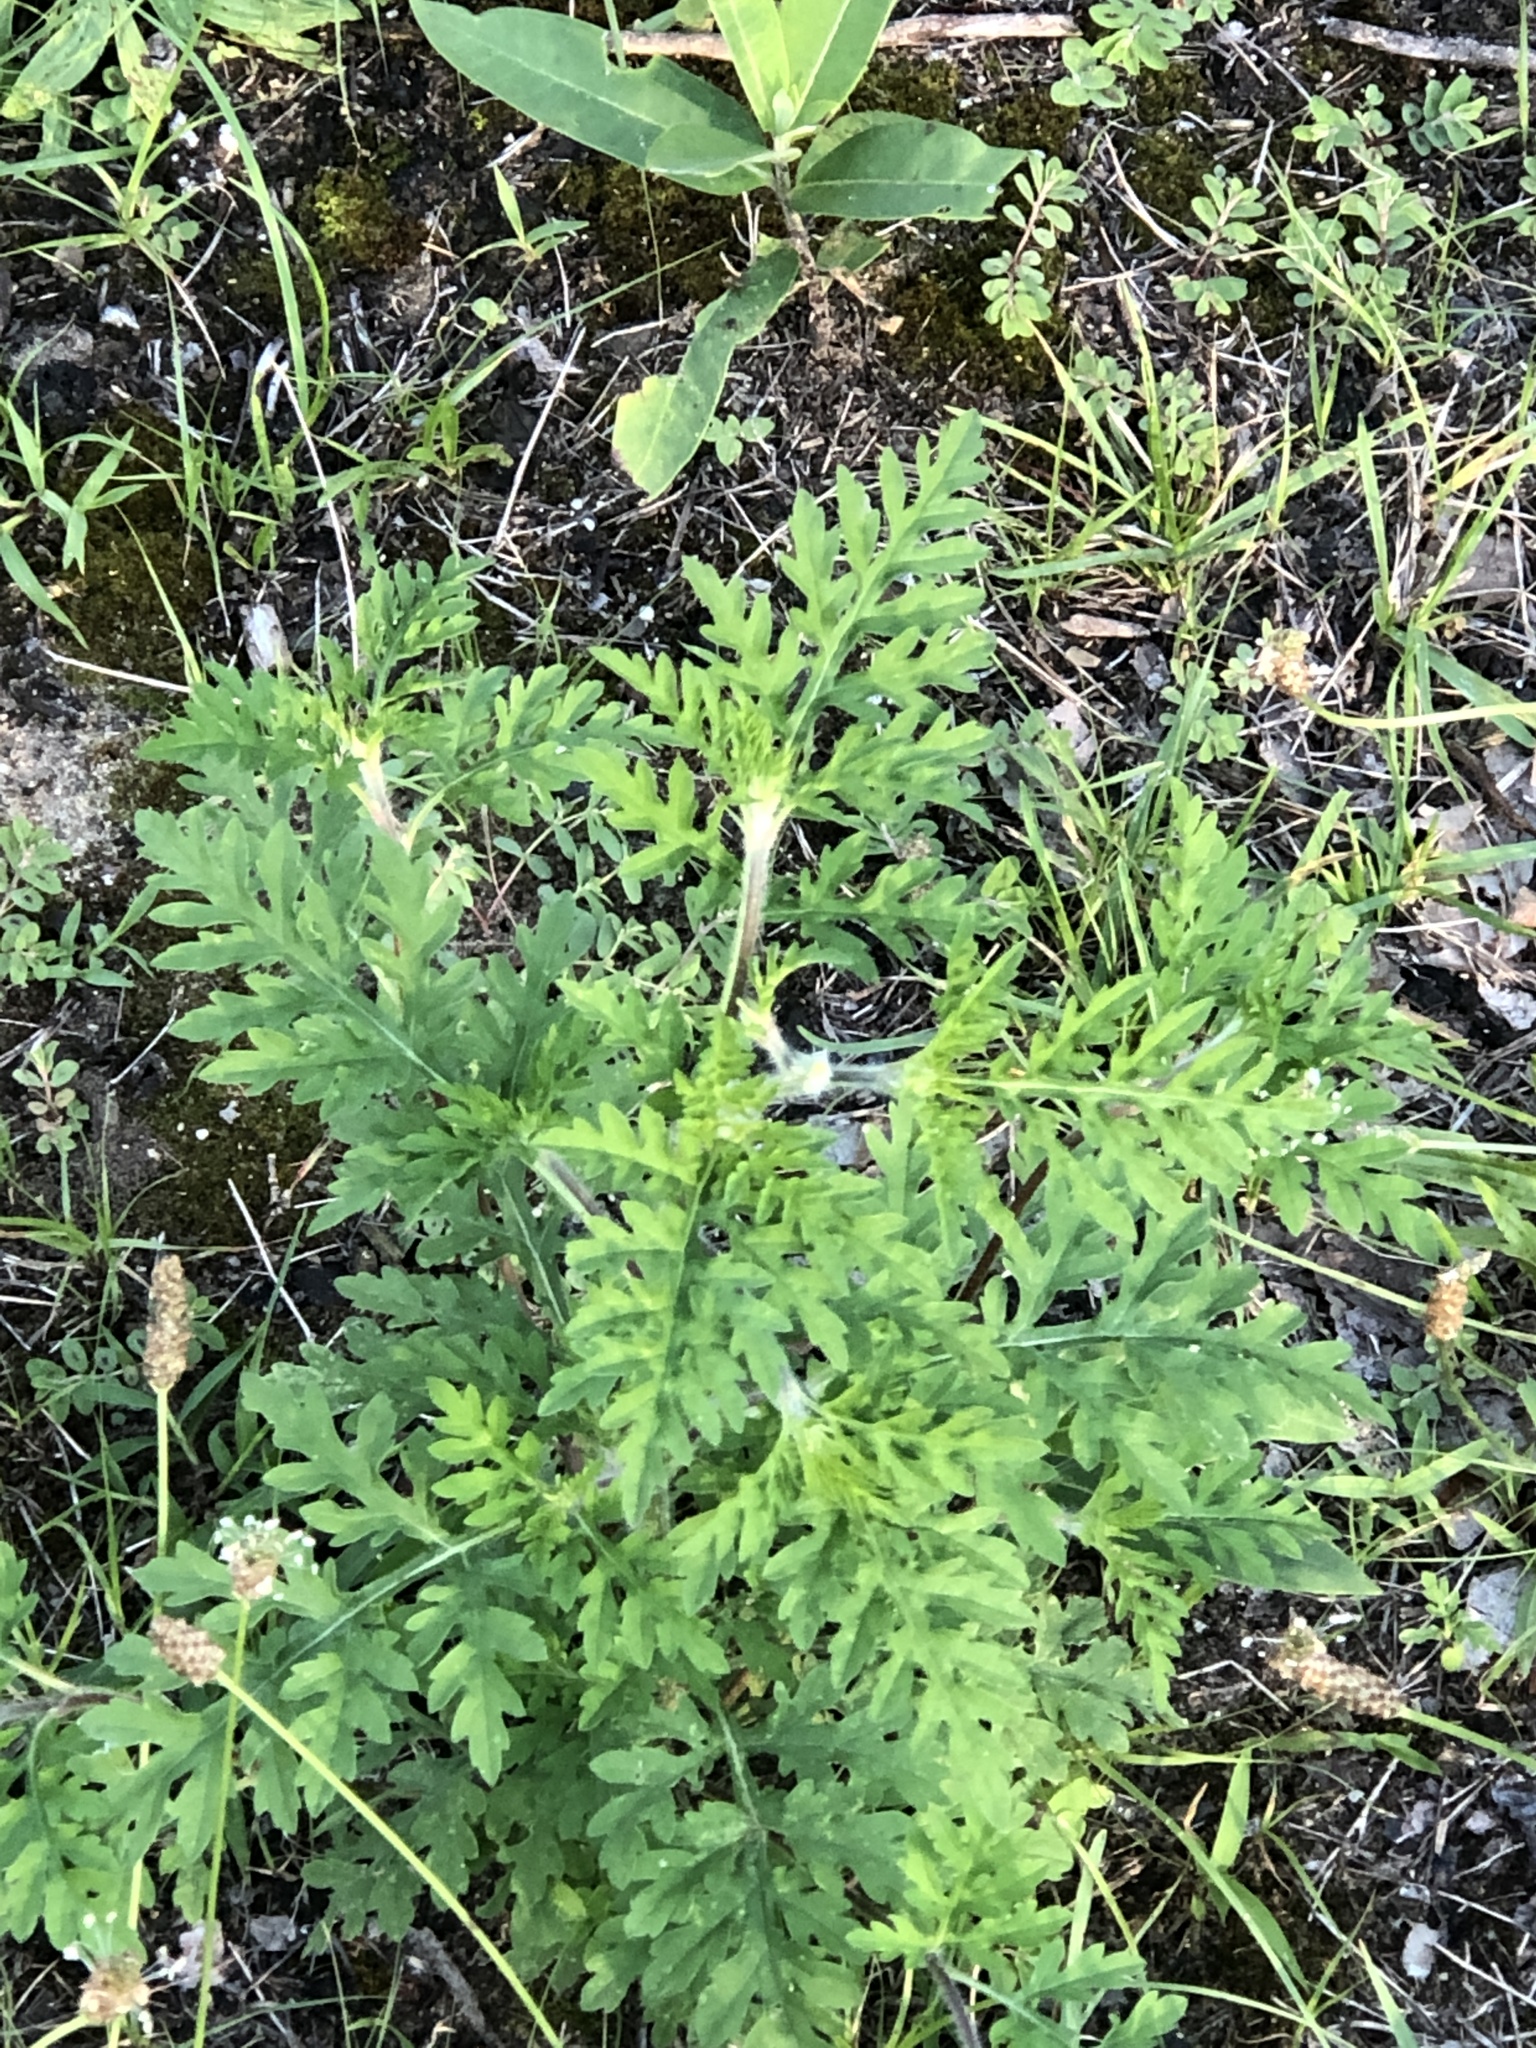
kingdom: Plantae
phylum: Tracheophyta
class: Magnoliopsida
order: Asterales
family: Asteraceae
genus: Ambrosia
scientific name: Ambrosia artemisiifolia
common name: Annual ragweed
